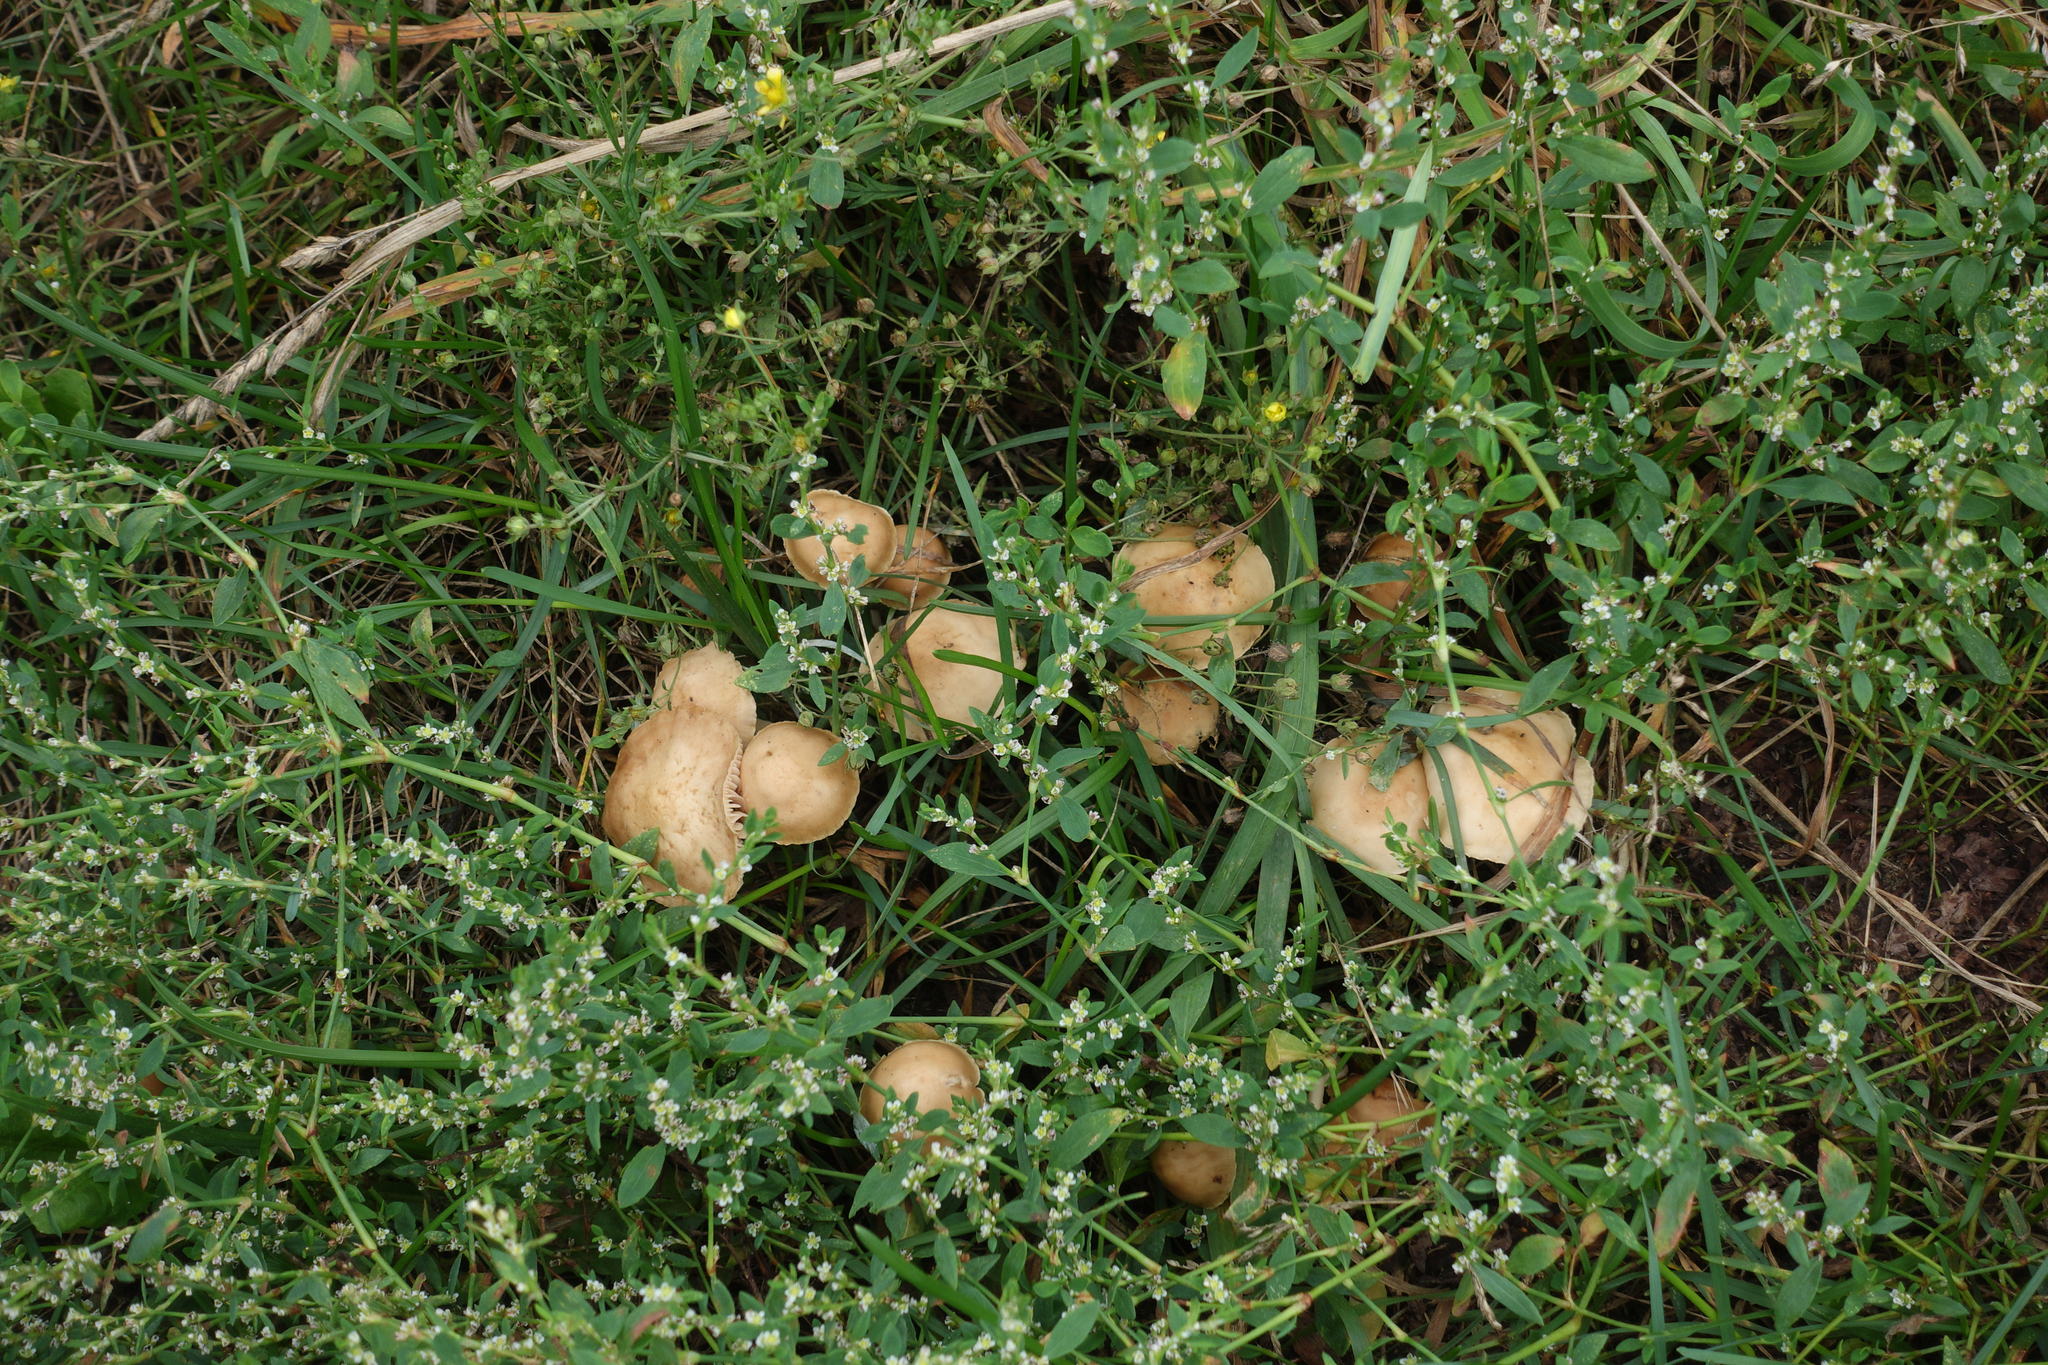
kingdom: Plantae
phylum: Tracheophyta
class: Magnoliopsida
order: Caryophyllales
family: Polygonaceae
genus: Polygonum
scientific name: Polygonum
